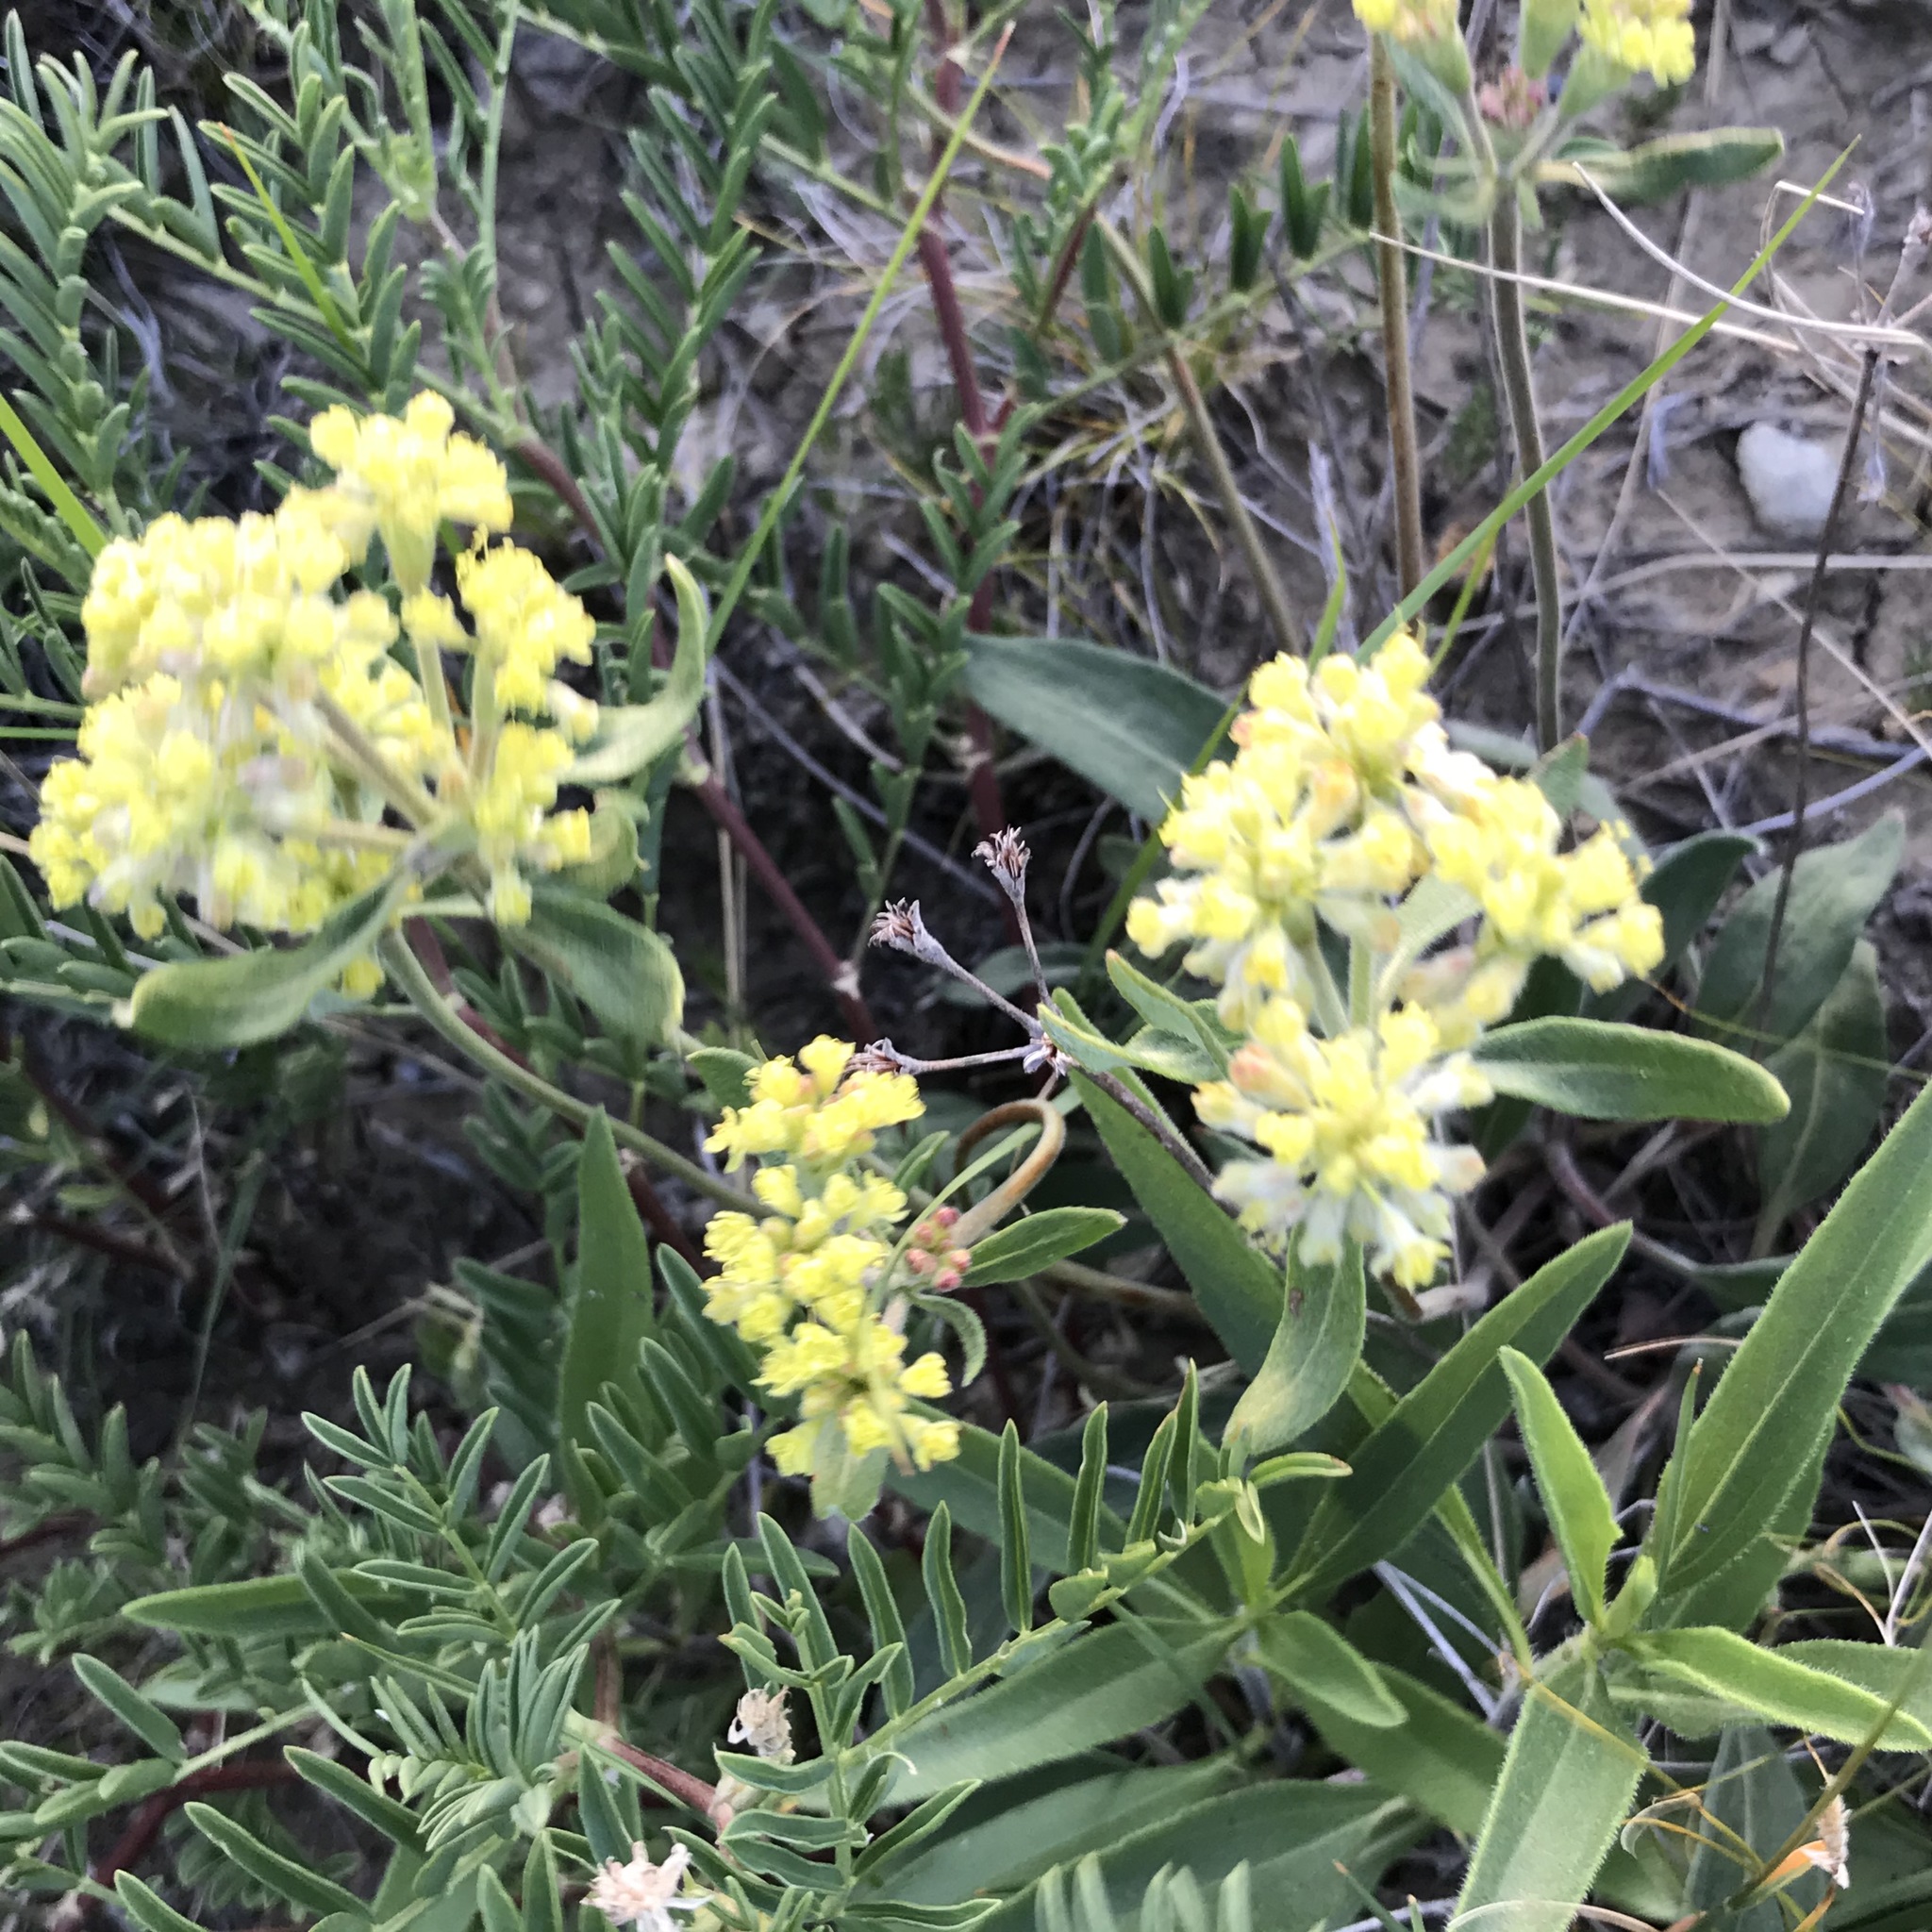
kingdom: Plantae
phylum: Tracheophyta
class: Magnoliopsida
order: Caryophyllales
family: Polygonaceae
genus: Eriogonum
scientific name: Eriogonum flavum
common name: Alpine golden wild buckwheat
